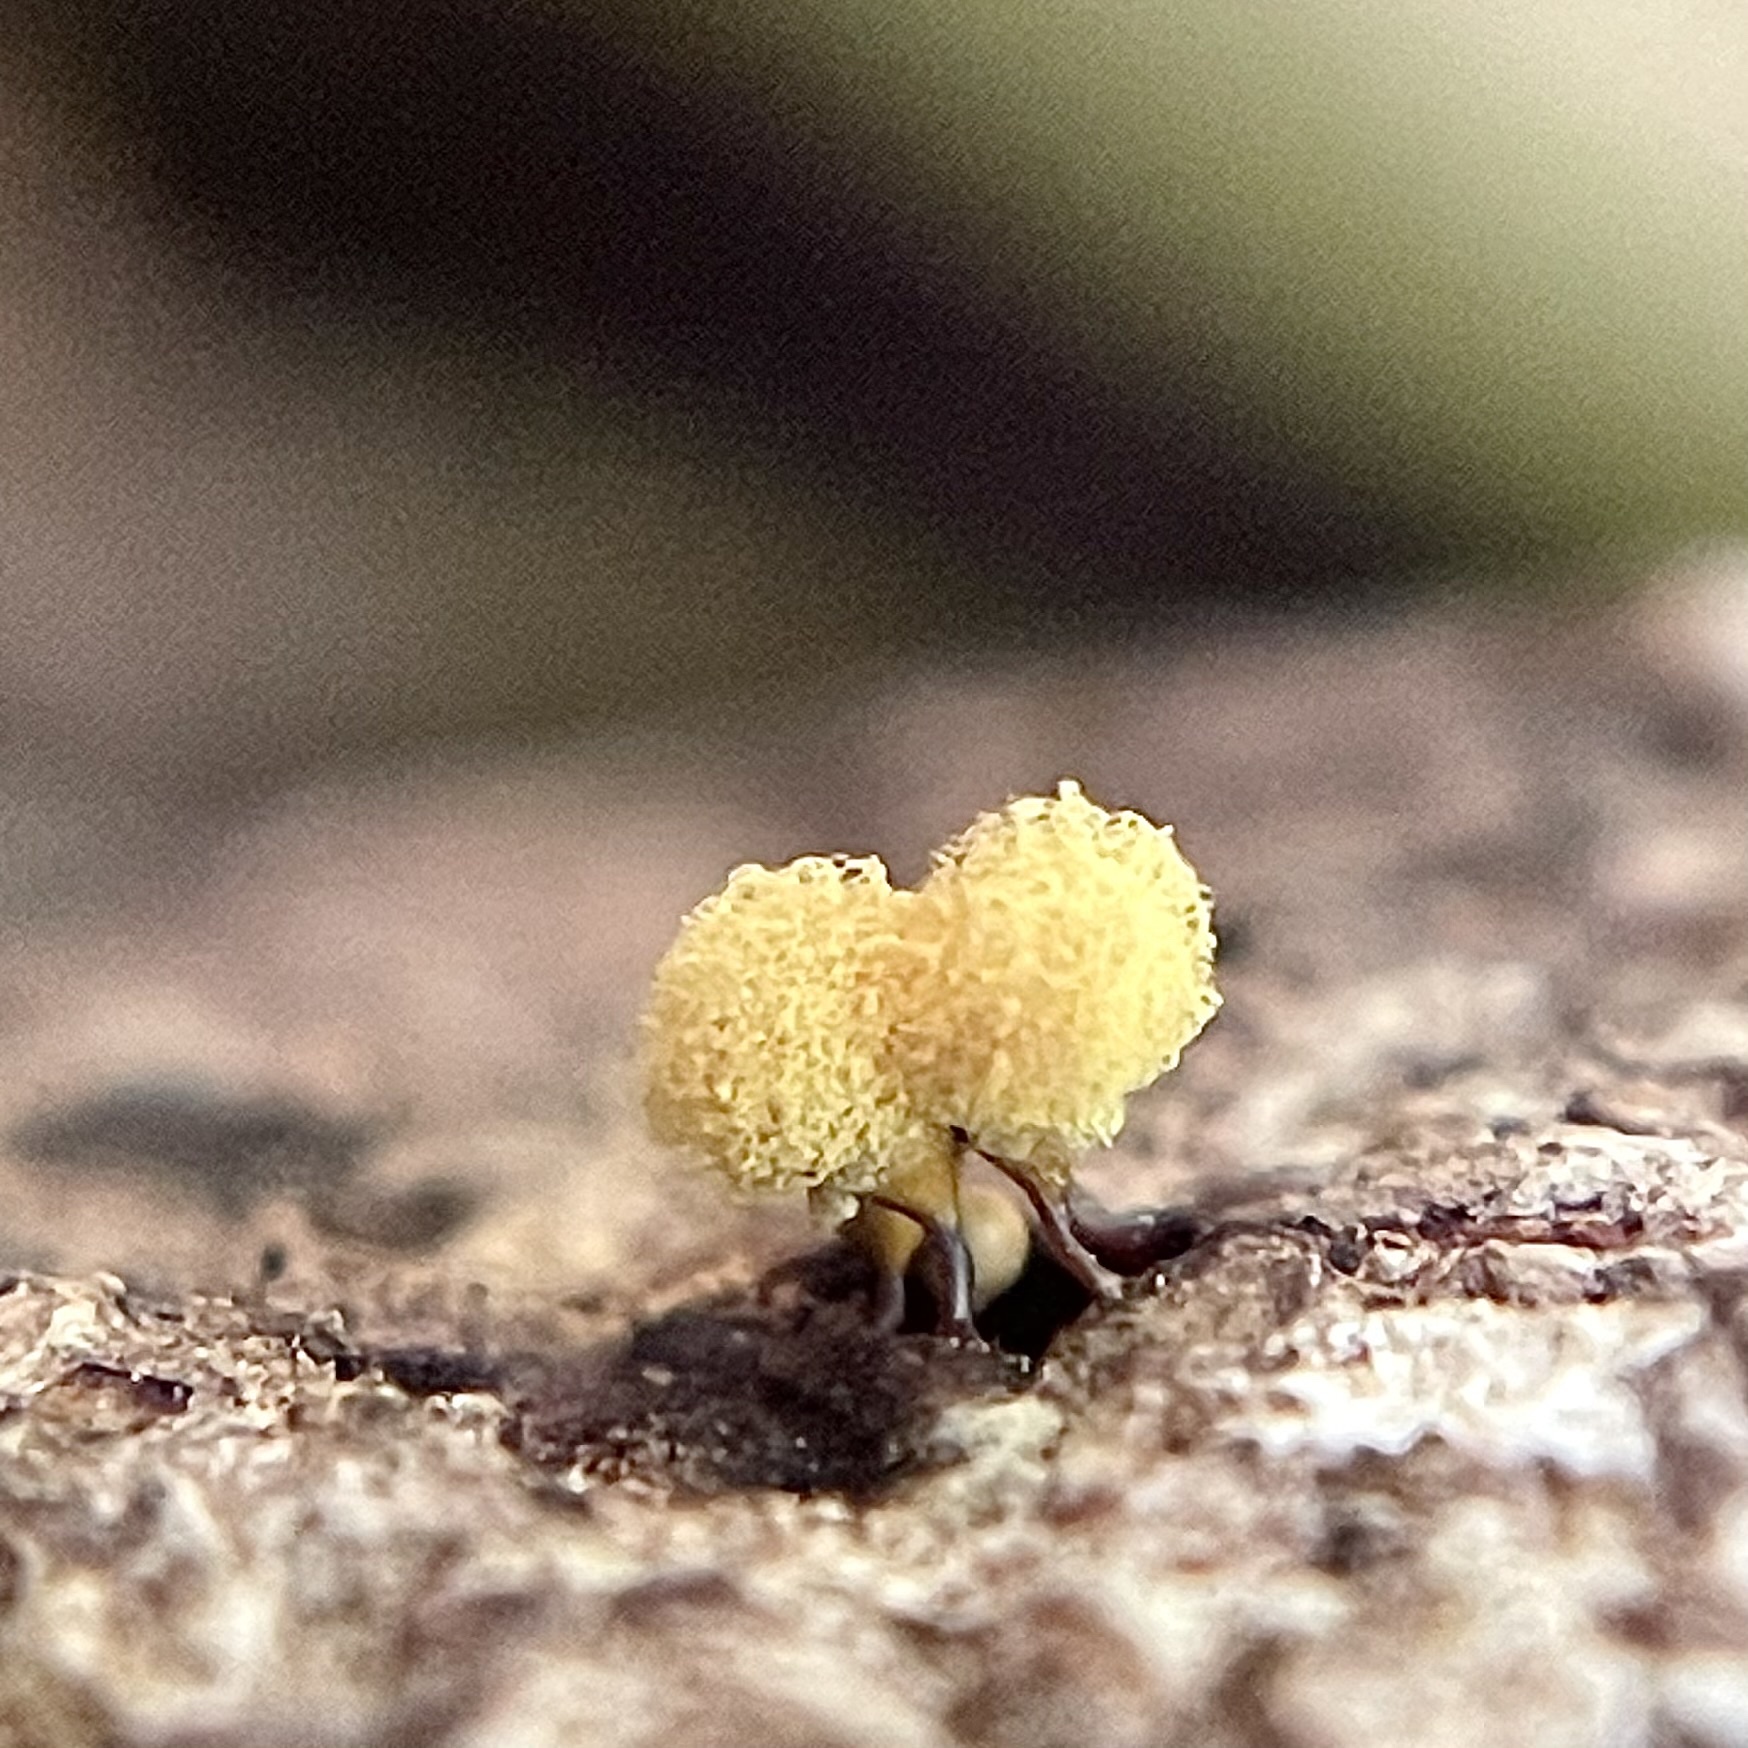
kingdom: Protozoa
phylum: Mycetozoa
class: Myxomycetes
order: Trichiales
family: Arcyriaceae
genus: Hemitrichia
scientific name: Hemitrichia calyculata
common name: Push pin slime mold
